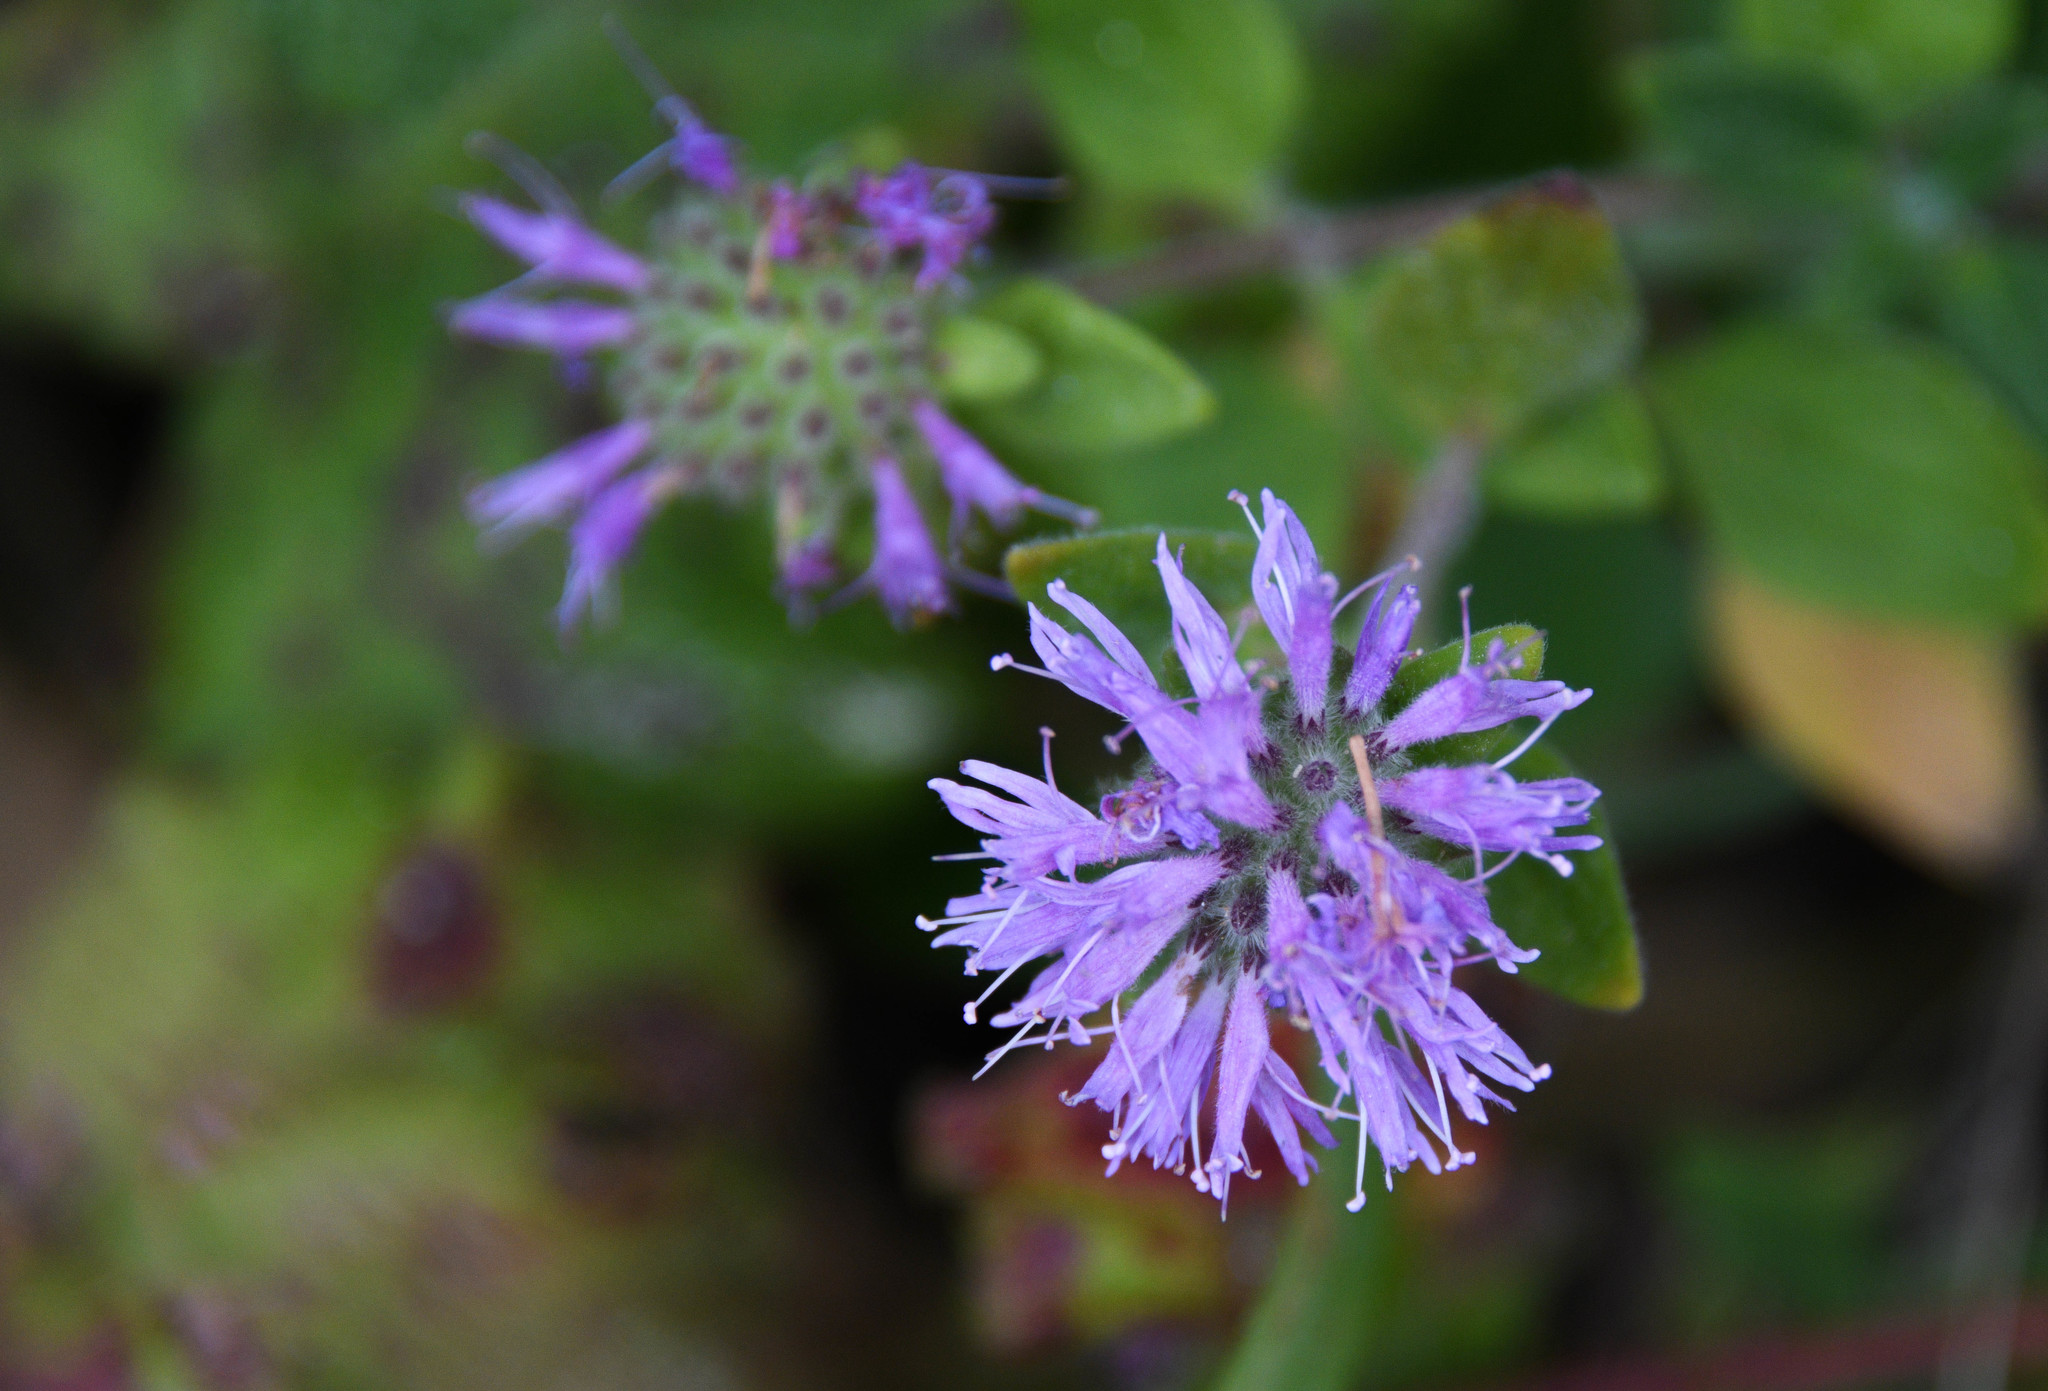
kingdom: Plantae
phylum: Tracheophyta
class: Magnoliopsida
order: Lamiales
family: Lamiaceae
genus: Monardella
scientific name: Monardella odoratissima
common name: Pacific monardella
